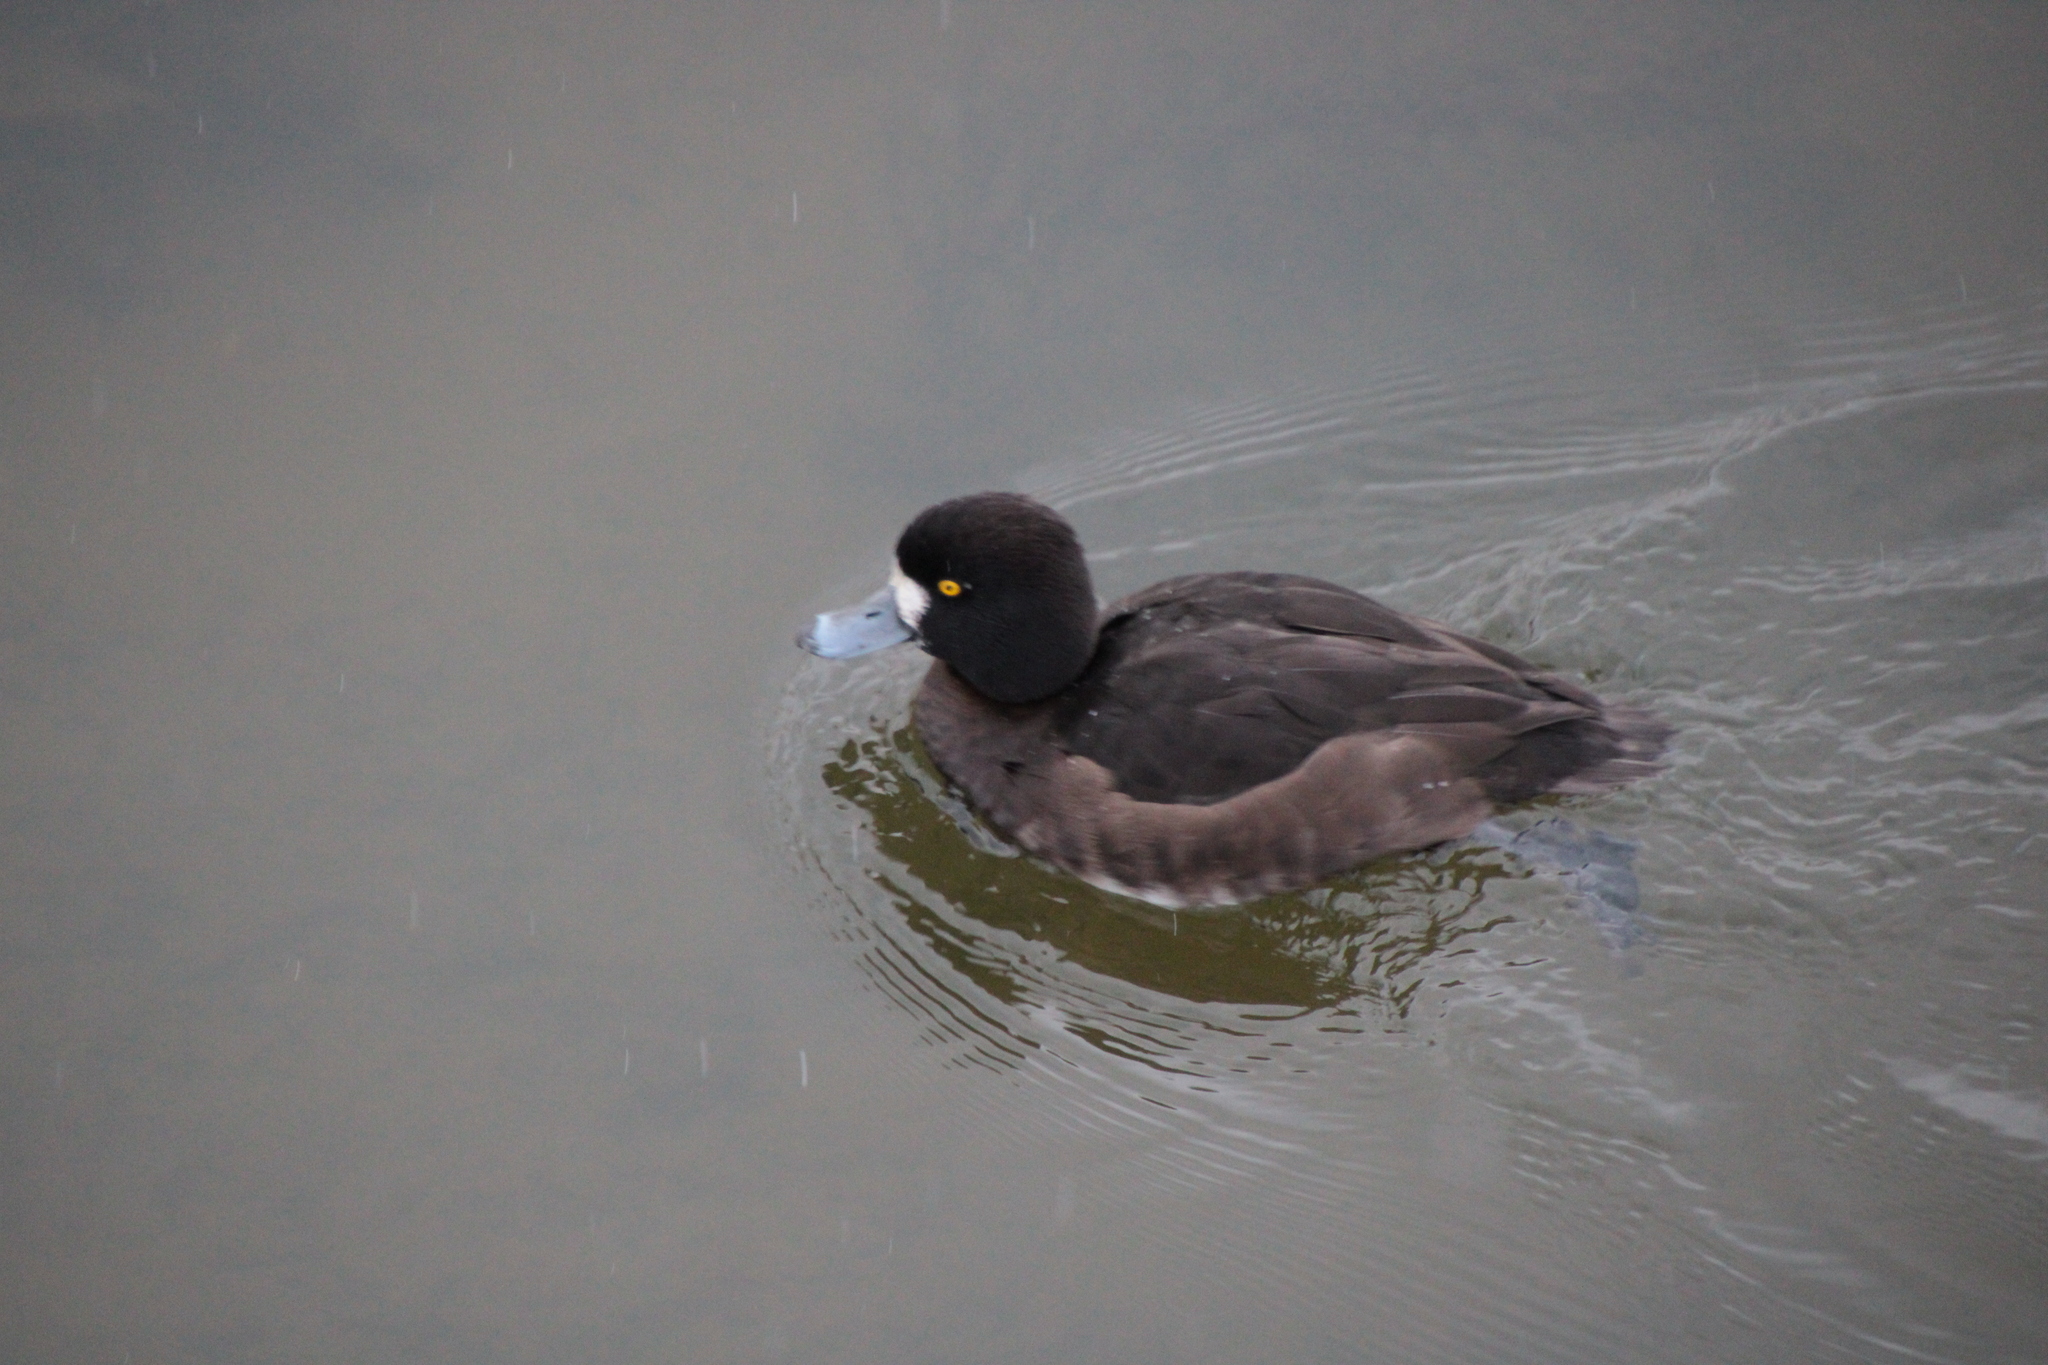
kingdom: Animalia
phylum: Chordata
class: Aves
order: Anseriformes
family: Anatidae
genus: Aythya
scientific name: Aythya fuligula
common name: Tufted duck
